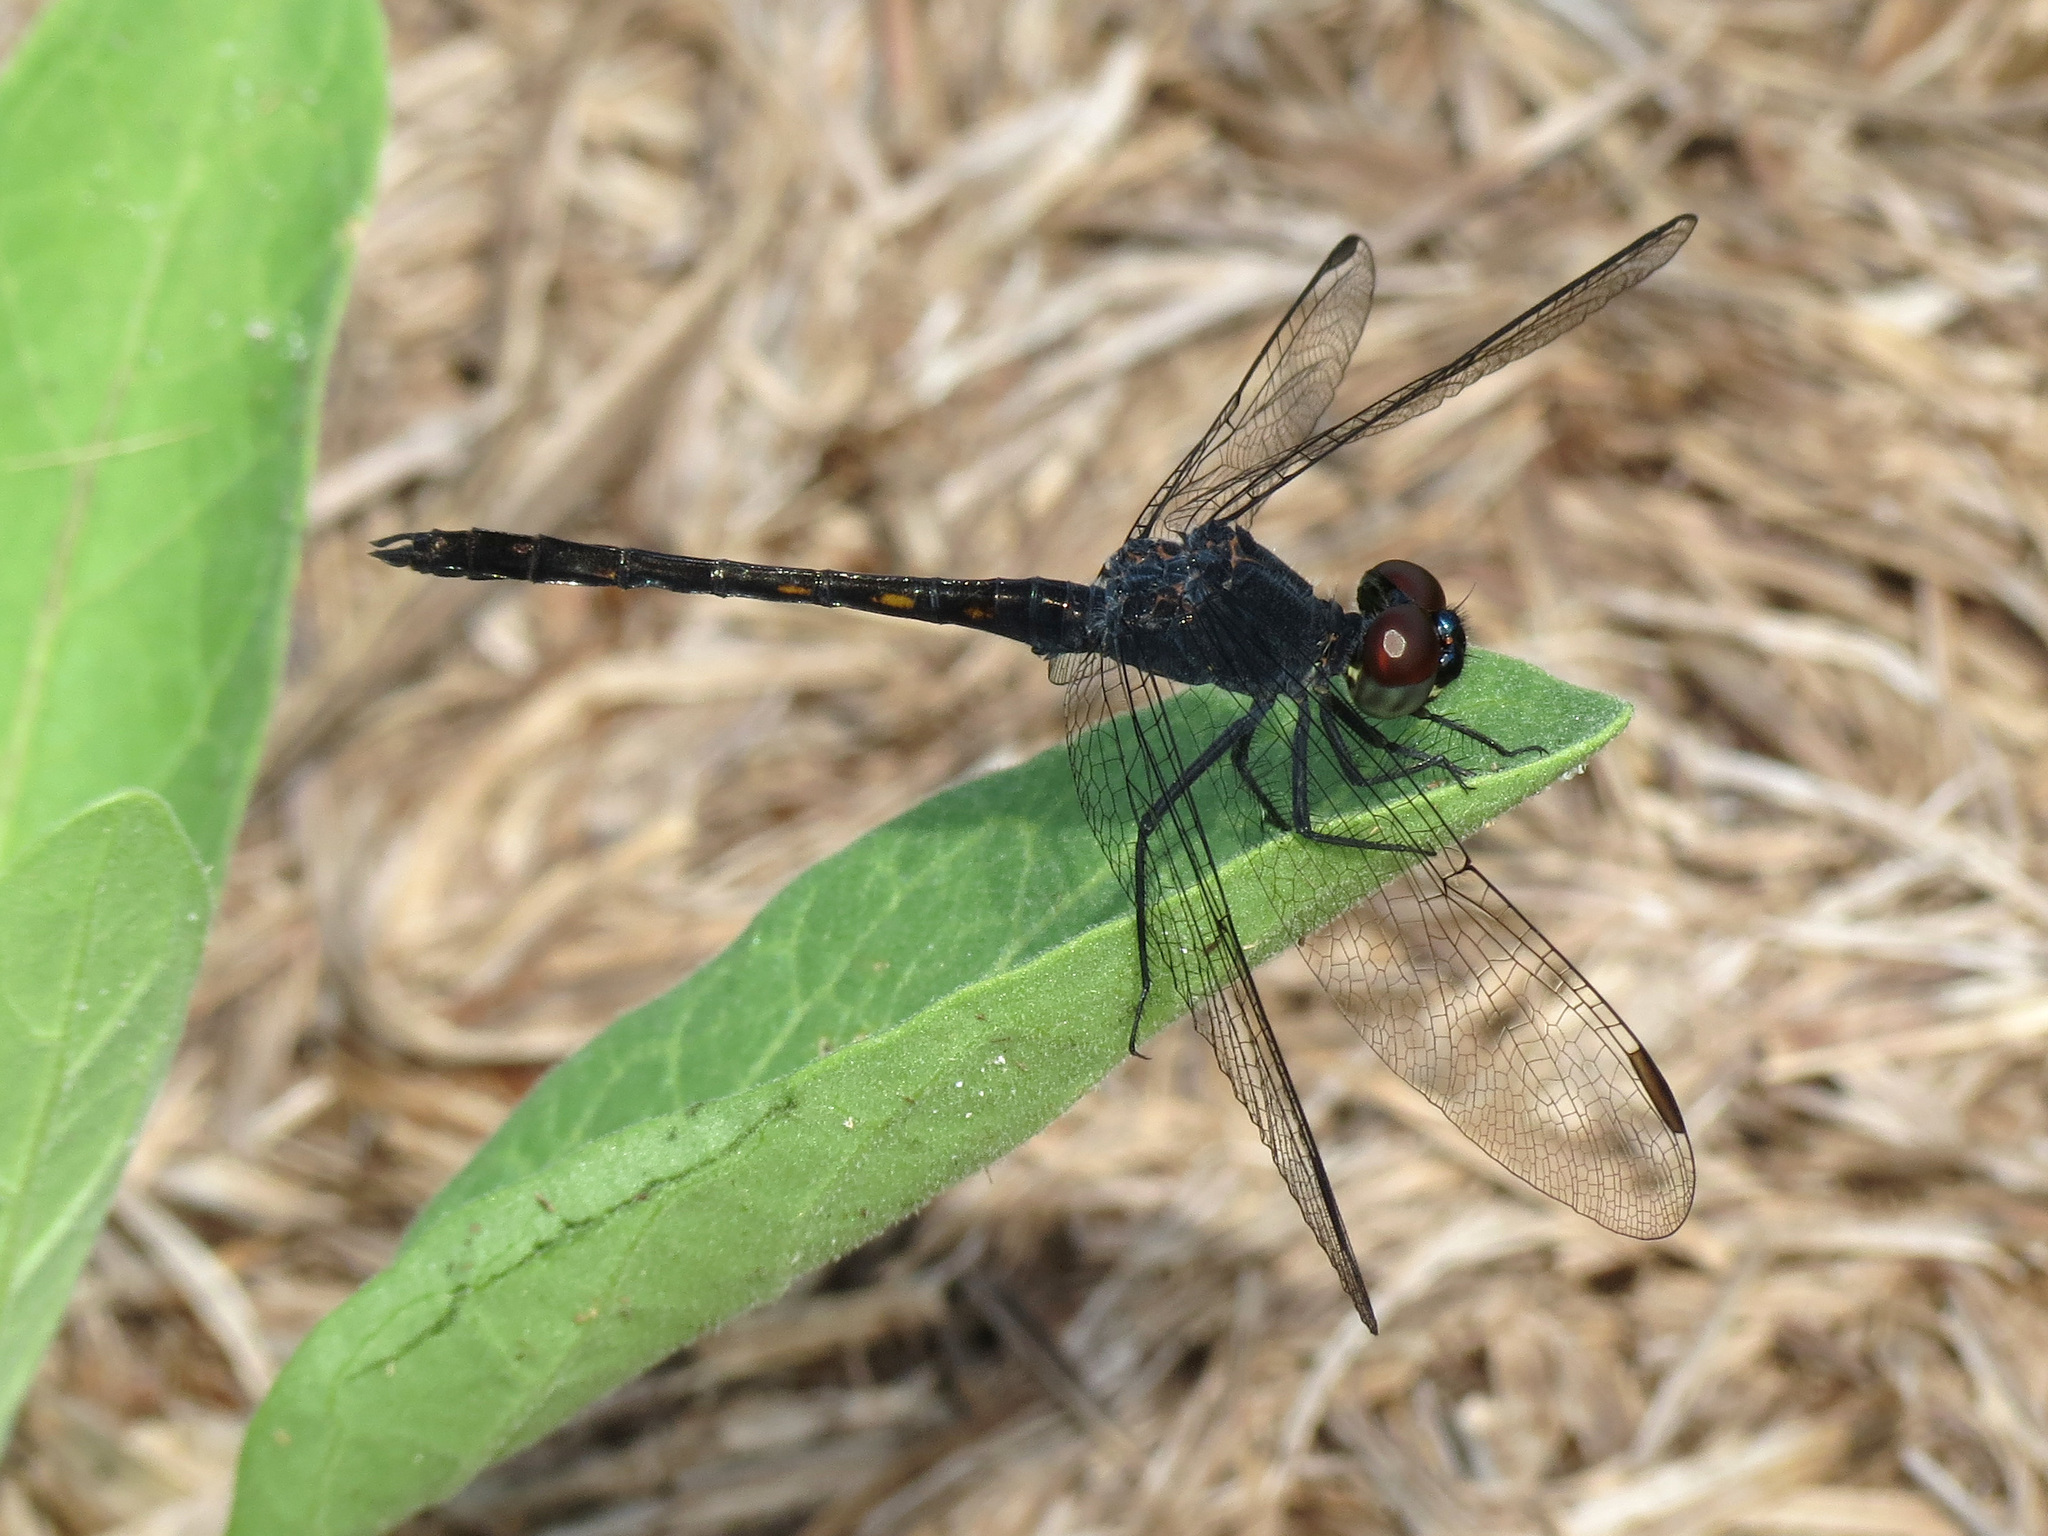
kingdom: Animalia
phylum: Arthropoda
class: Insecta
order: Odonata
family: Libellulidae
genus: Erythrodiplax
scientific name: Erythrodiplax berenice
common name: Seaside dragonlet
